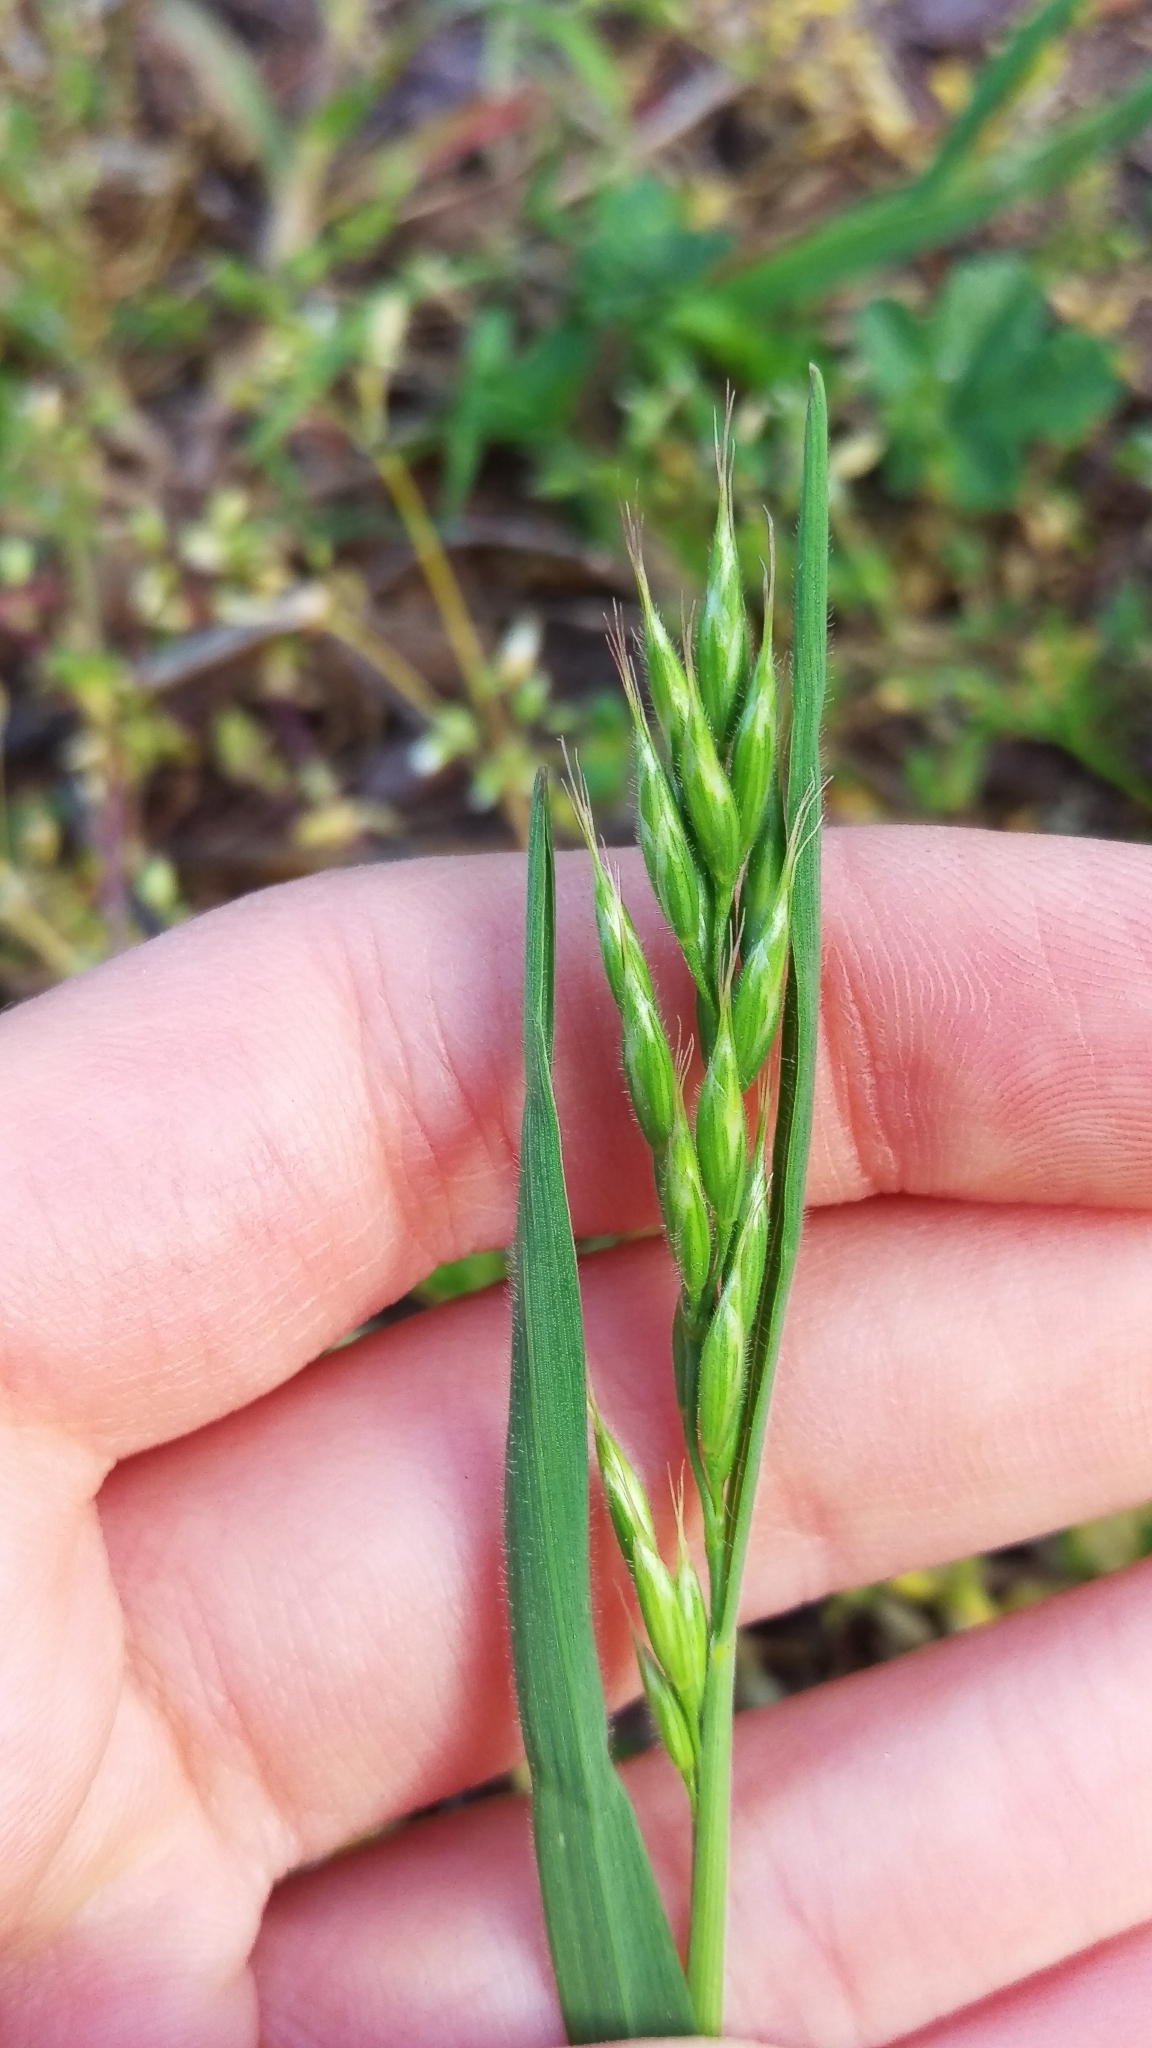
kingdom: Plantae
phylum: Tracheophyta
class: Liliopsida
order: Poales
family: Poaceae
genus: Bromus
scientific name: Bromus hordeaceus
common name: Soft brome
